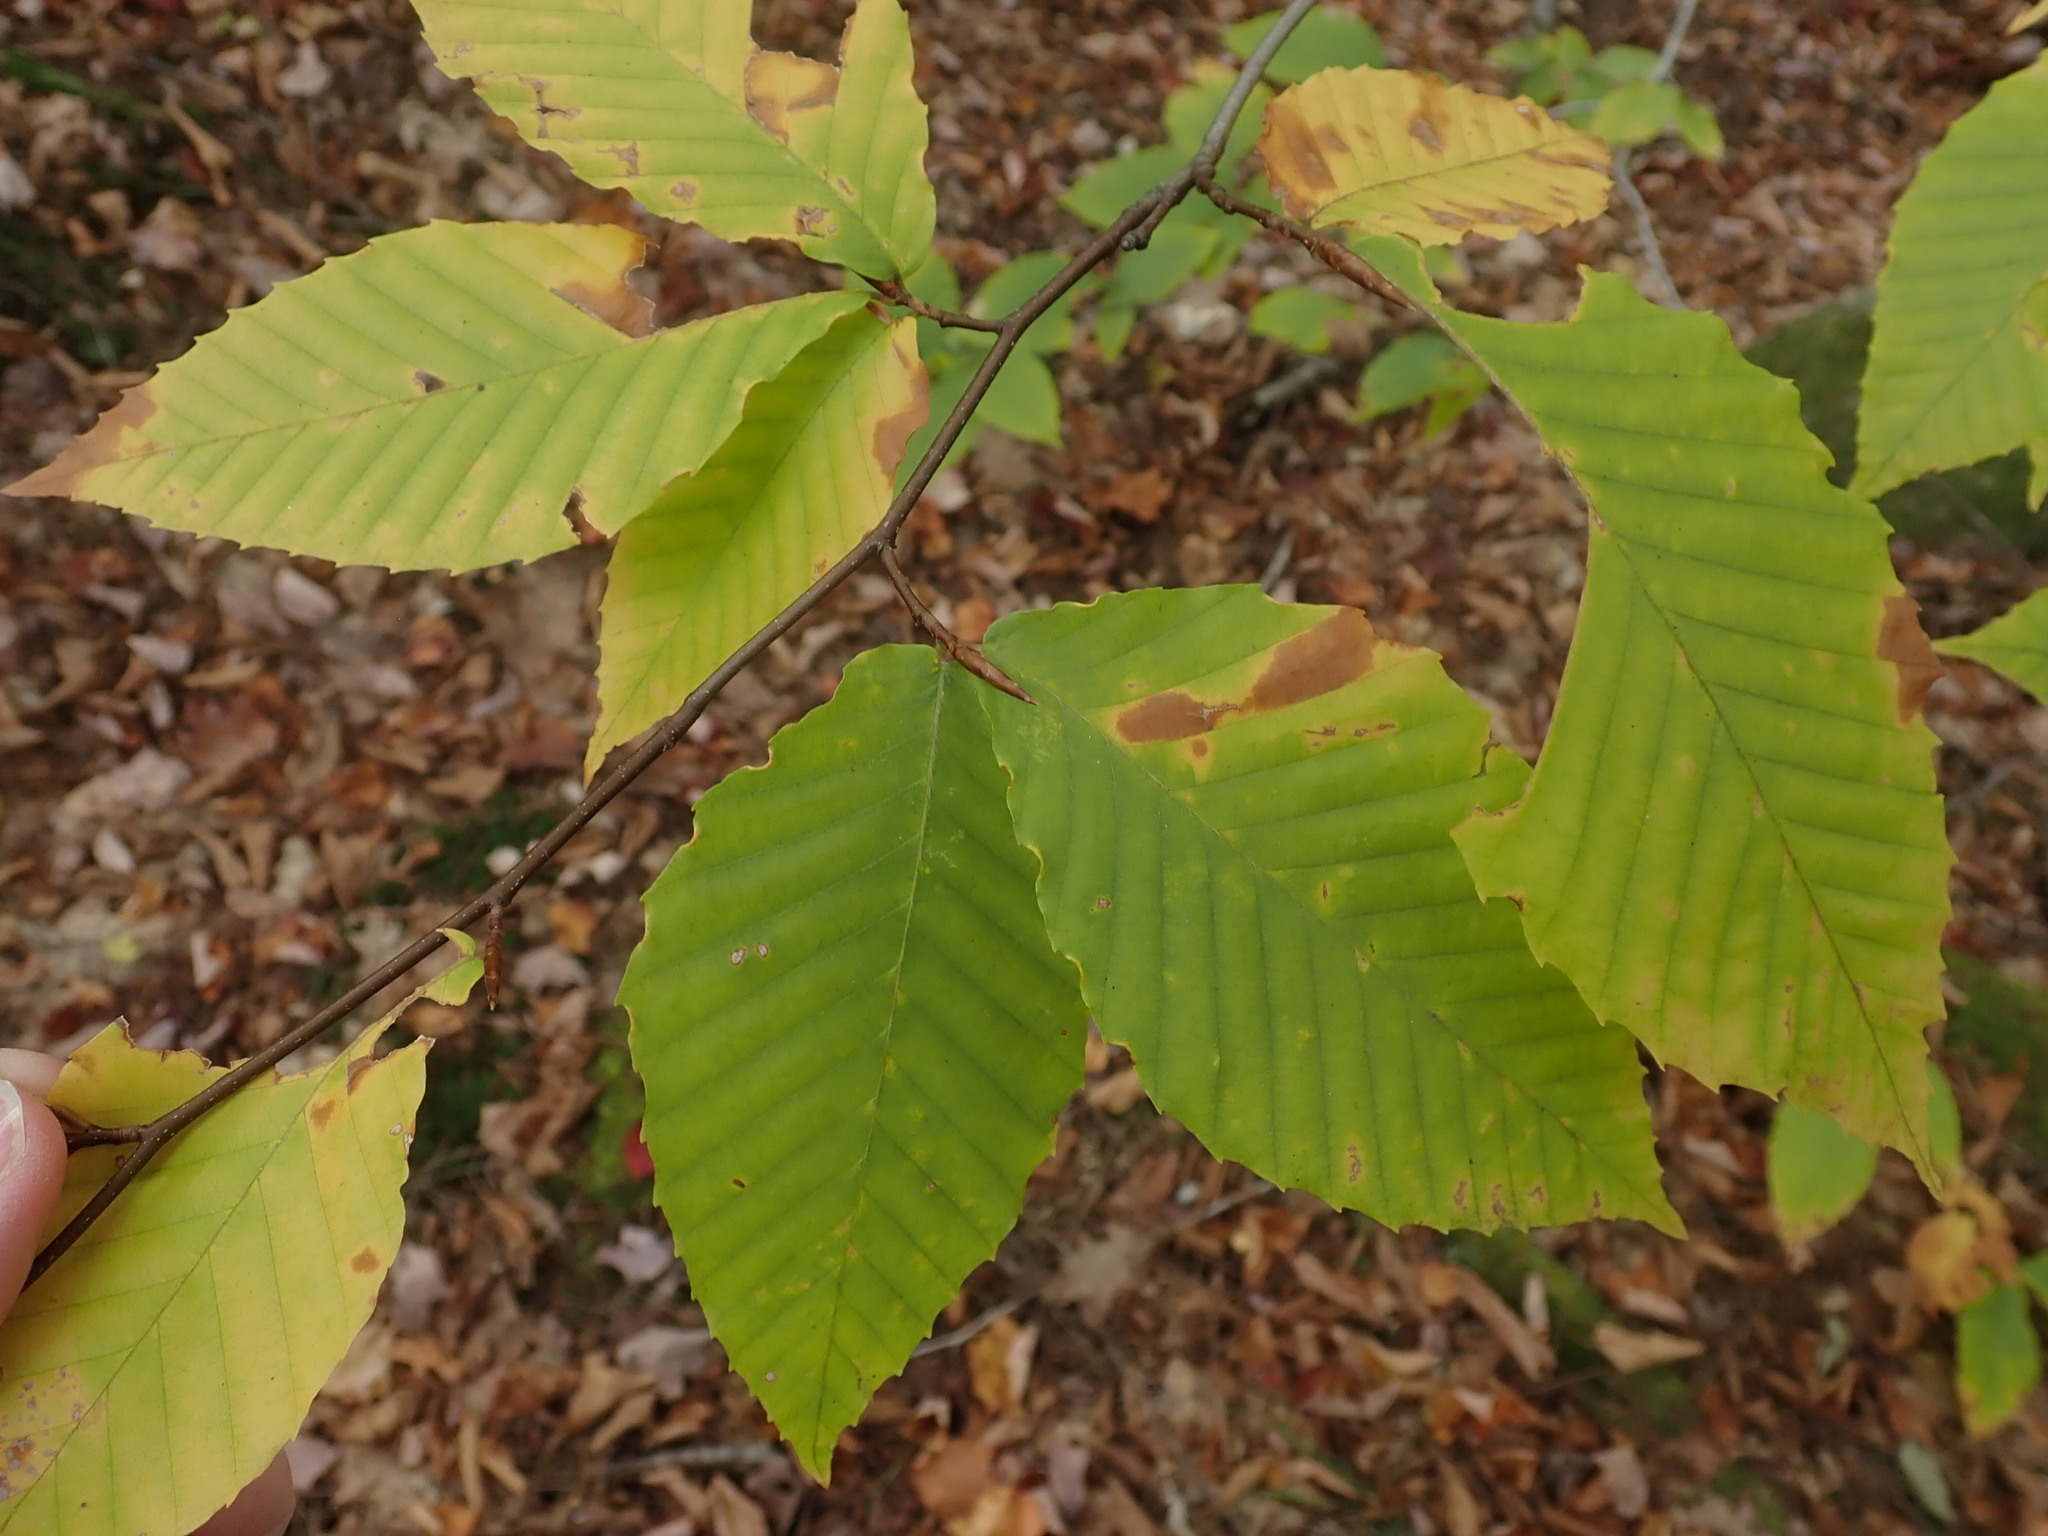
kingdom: Plantae
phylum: Tracheophyta
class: Magnoliopsida
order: Fagales
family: Fagaceae
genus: Fagus
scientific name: Fagus grandifolia
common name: American beech
